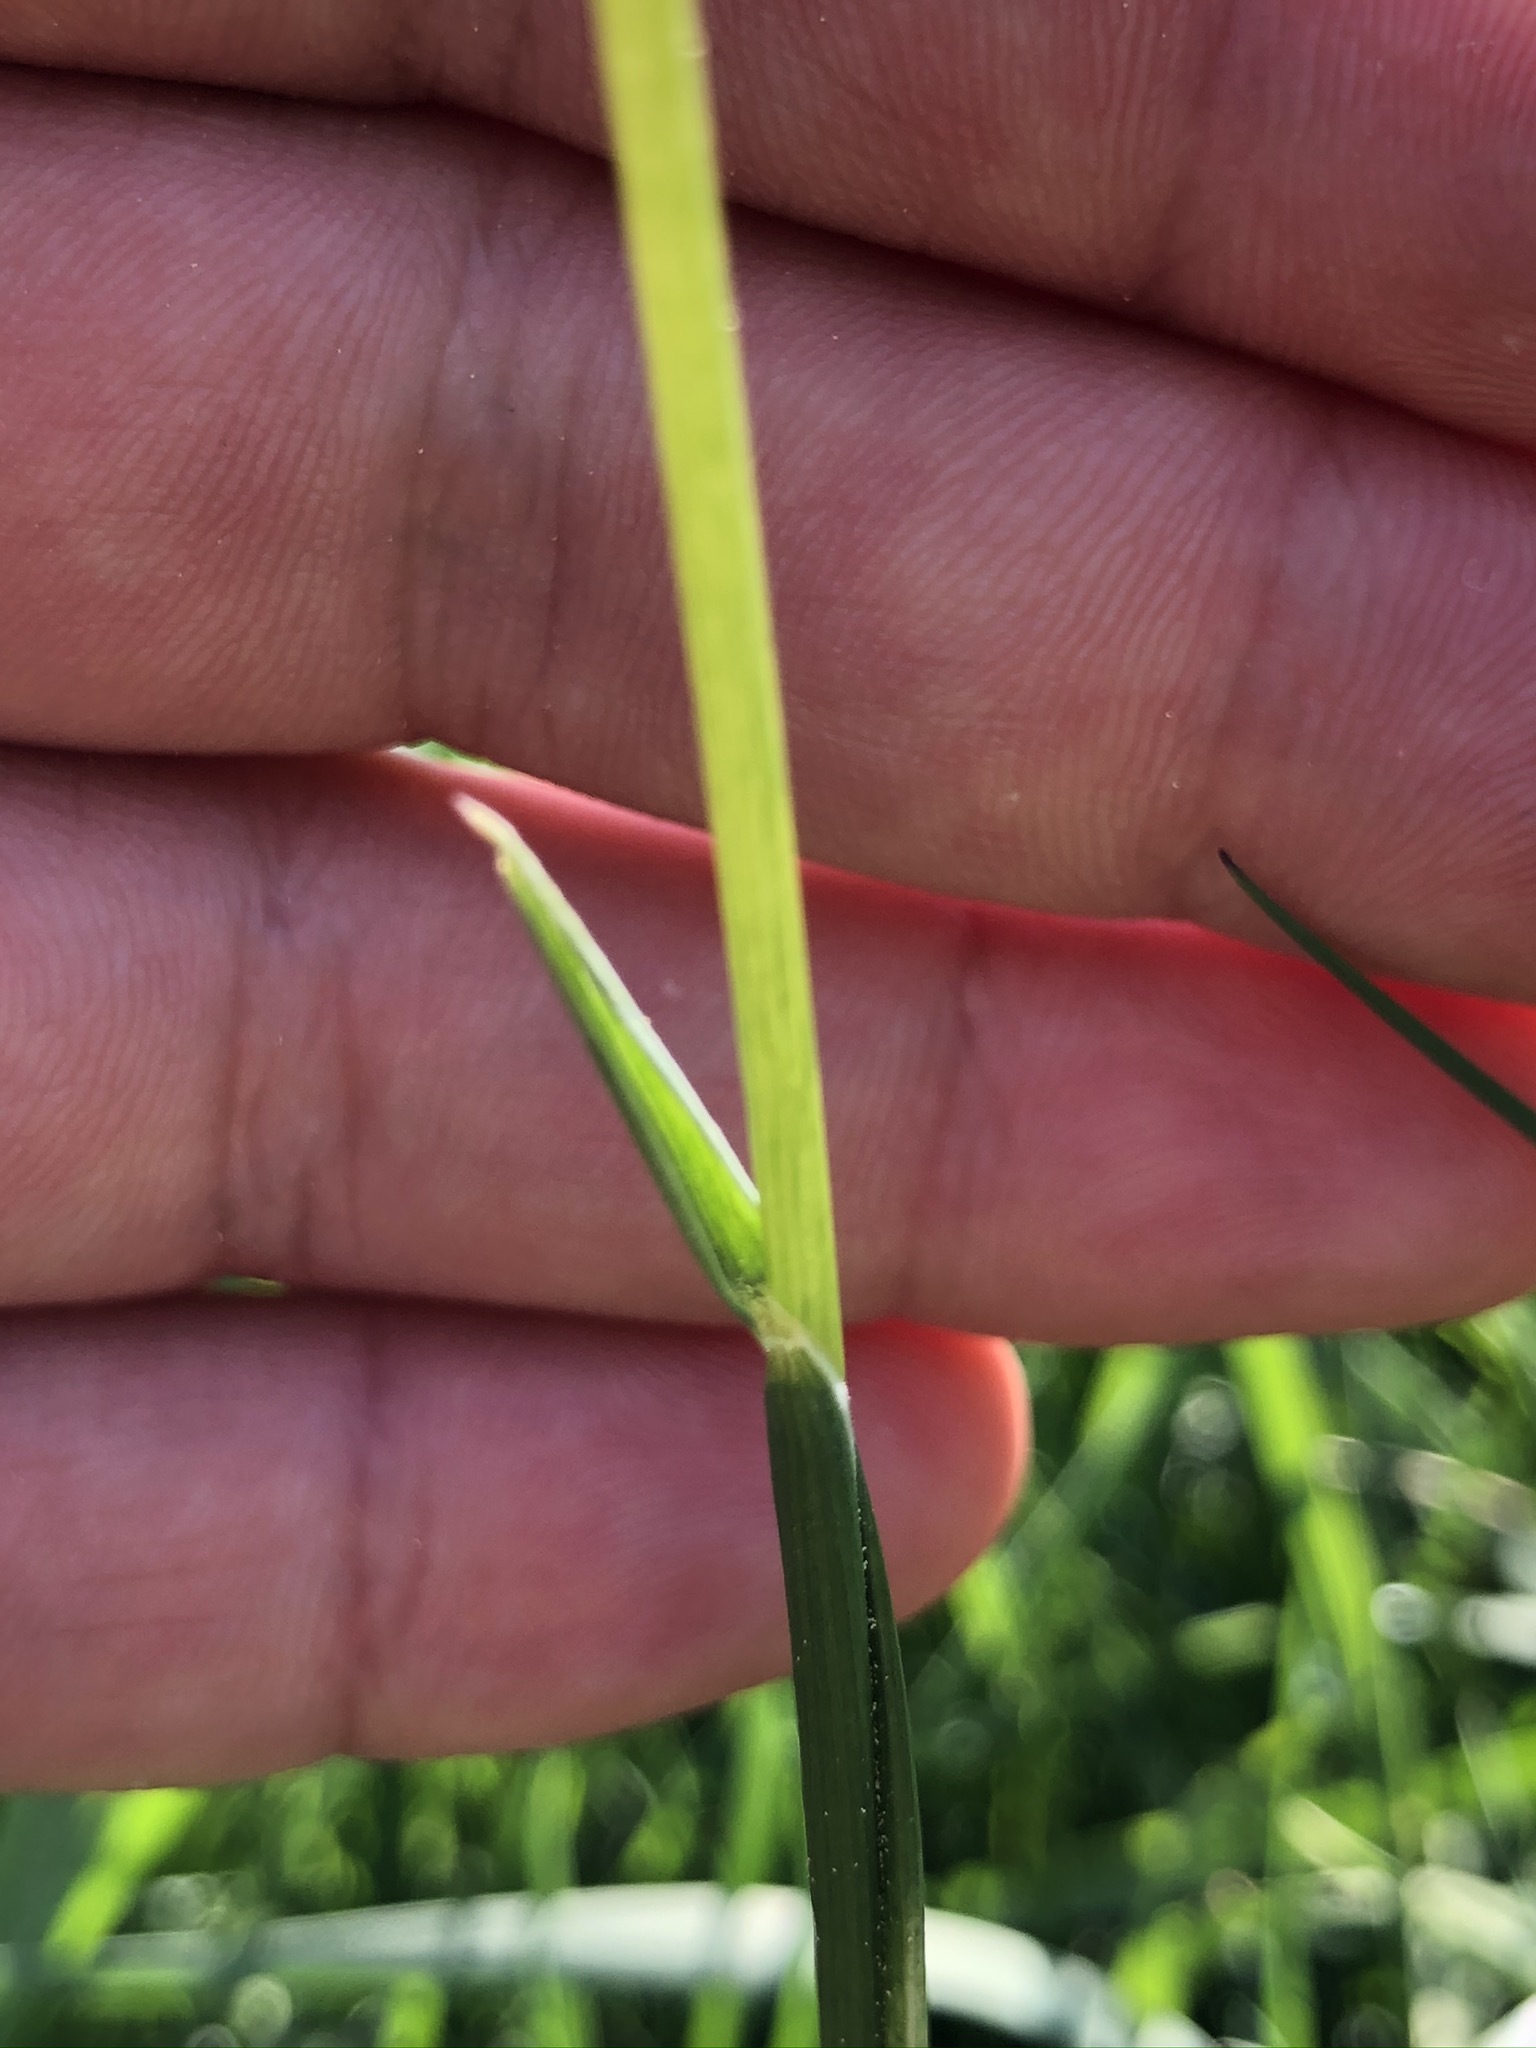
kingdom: Plantae
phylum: Tracheophyta
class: Liliopsida
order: Poales
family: Poaceae
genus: Alopecurus
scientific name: Alopecurus pratensis
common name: Meadow foxtail
